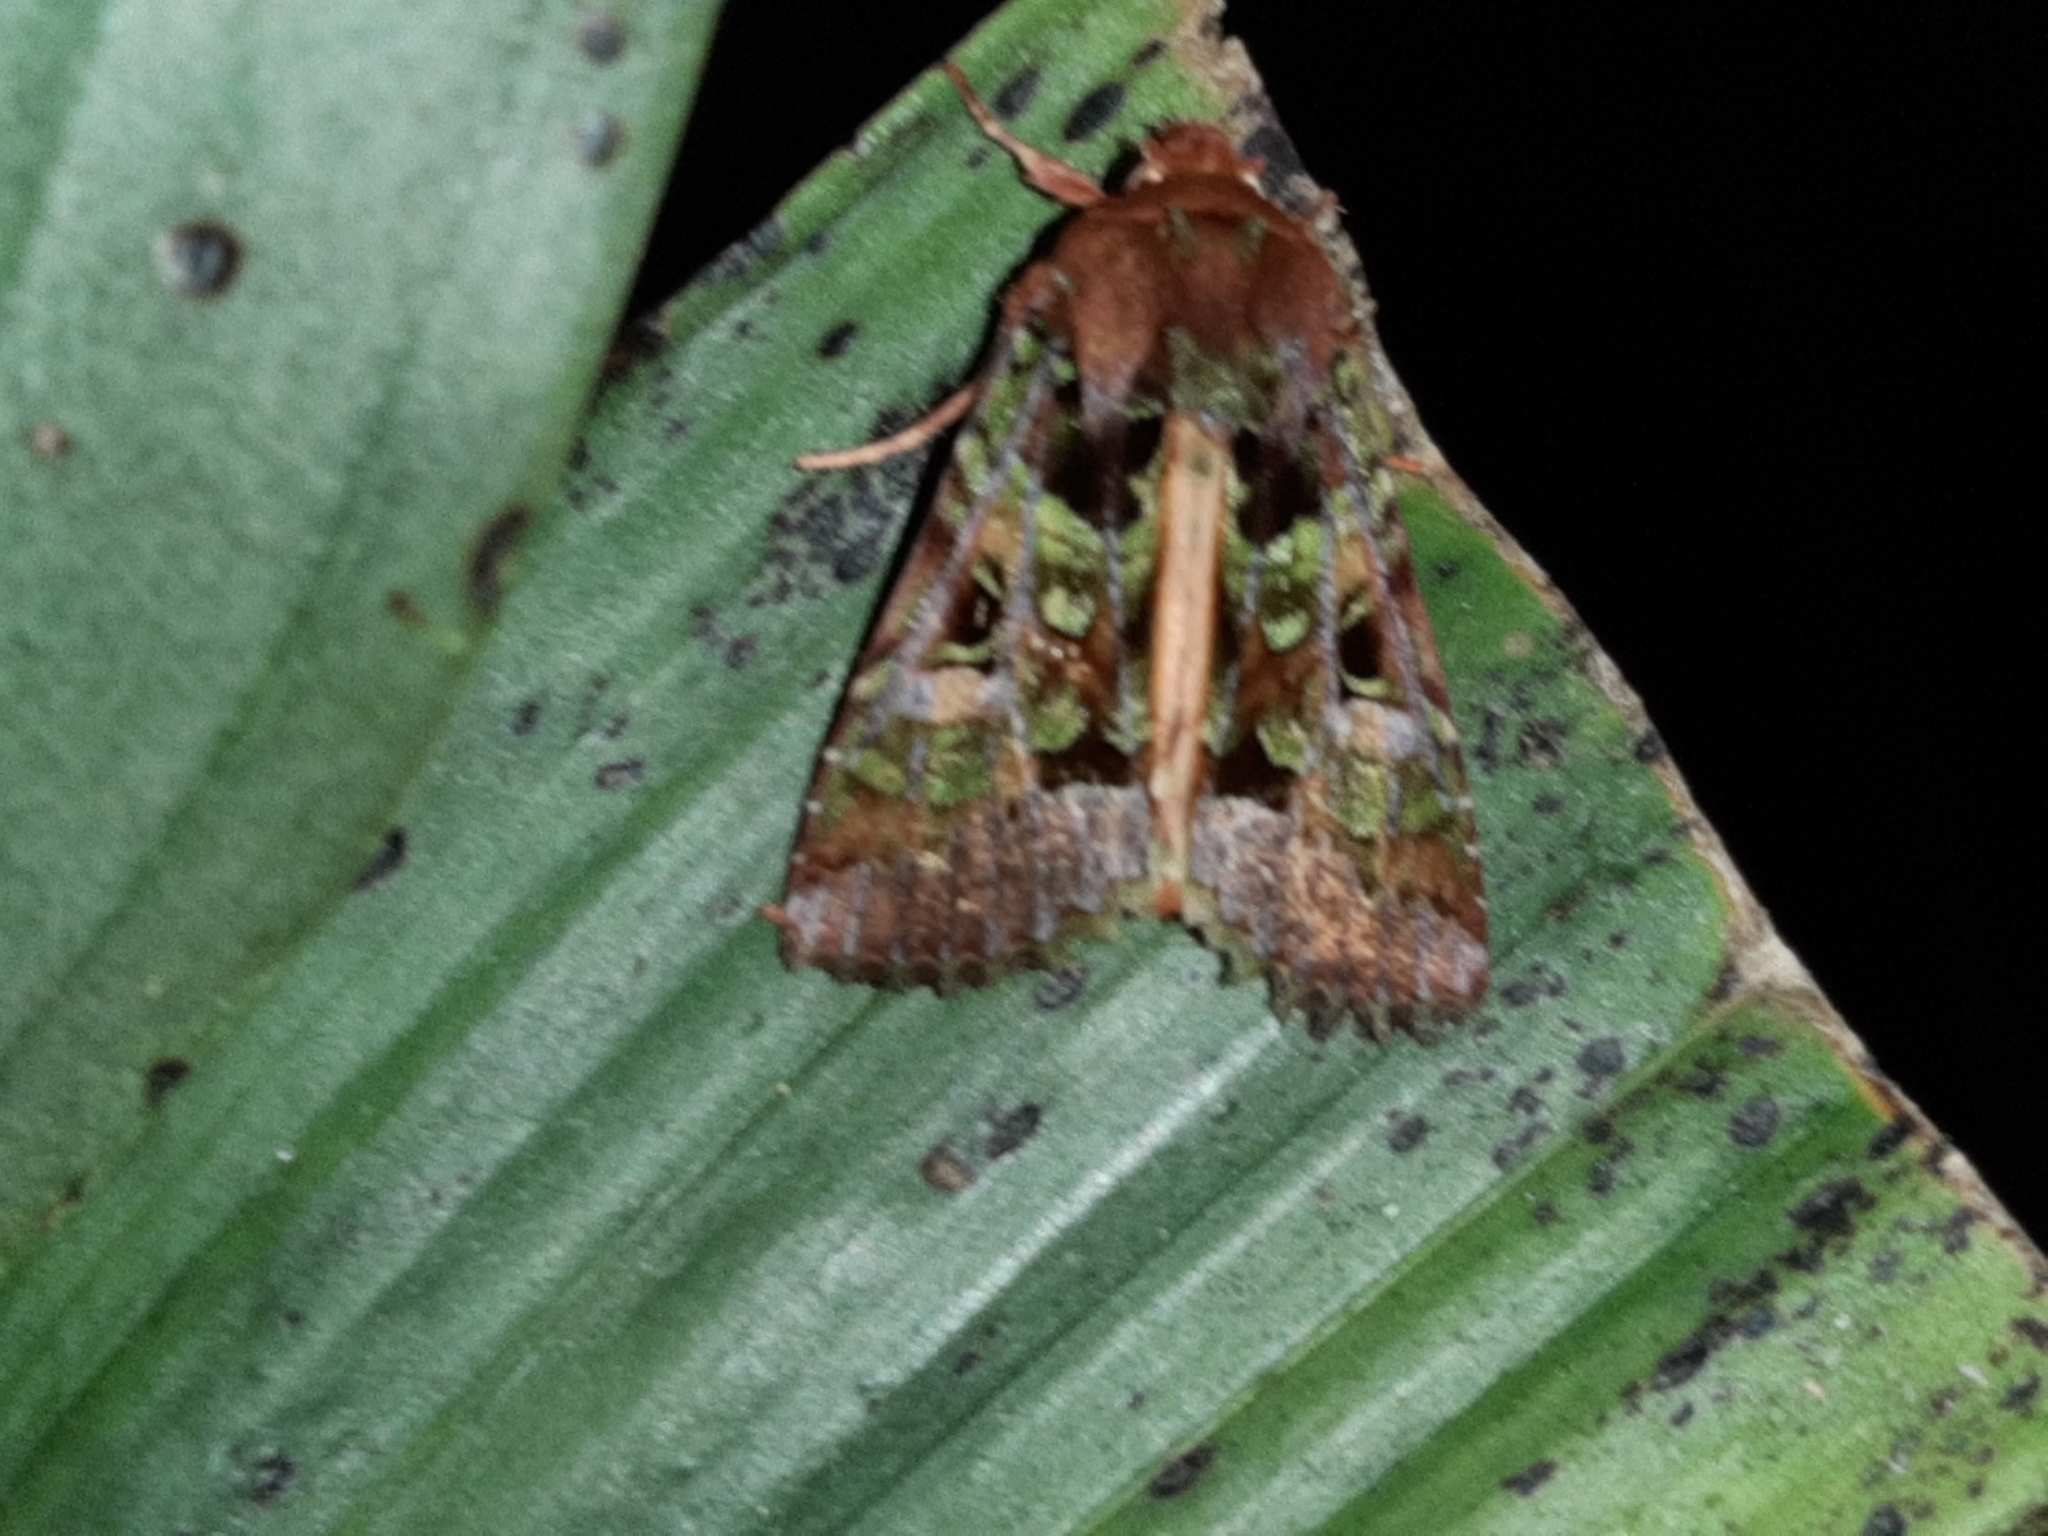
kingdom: Animalia
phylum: Arthropoda
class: Insecta
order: Lepidoptera
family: Noctuidae
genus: Paratrachea
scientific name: Paratrachea laches
